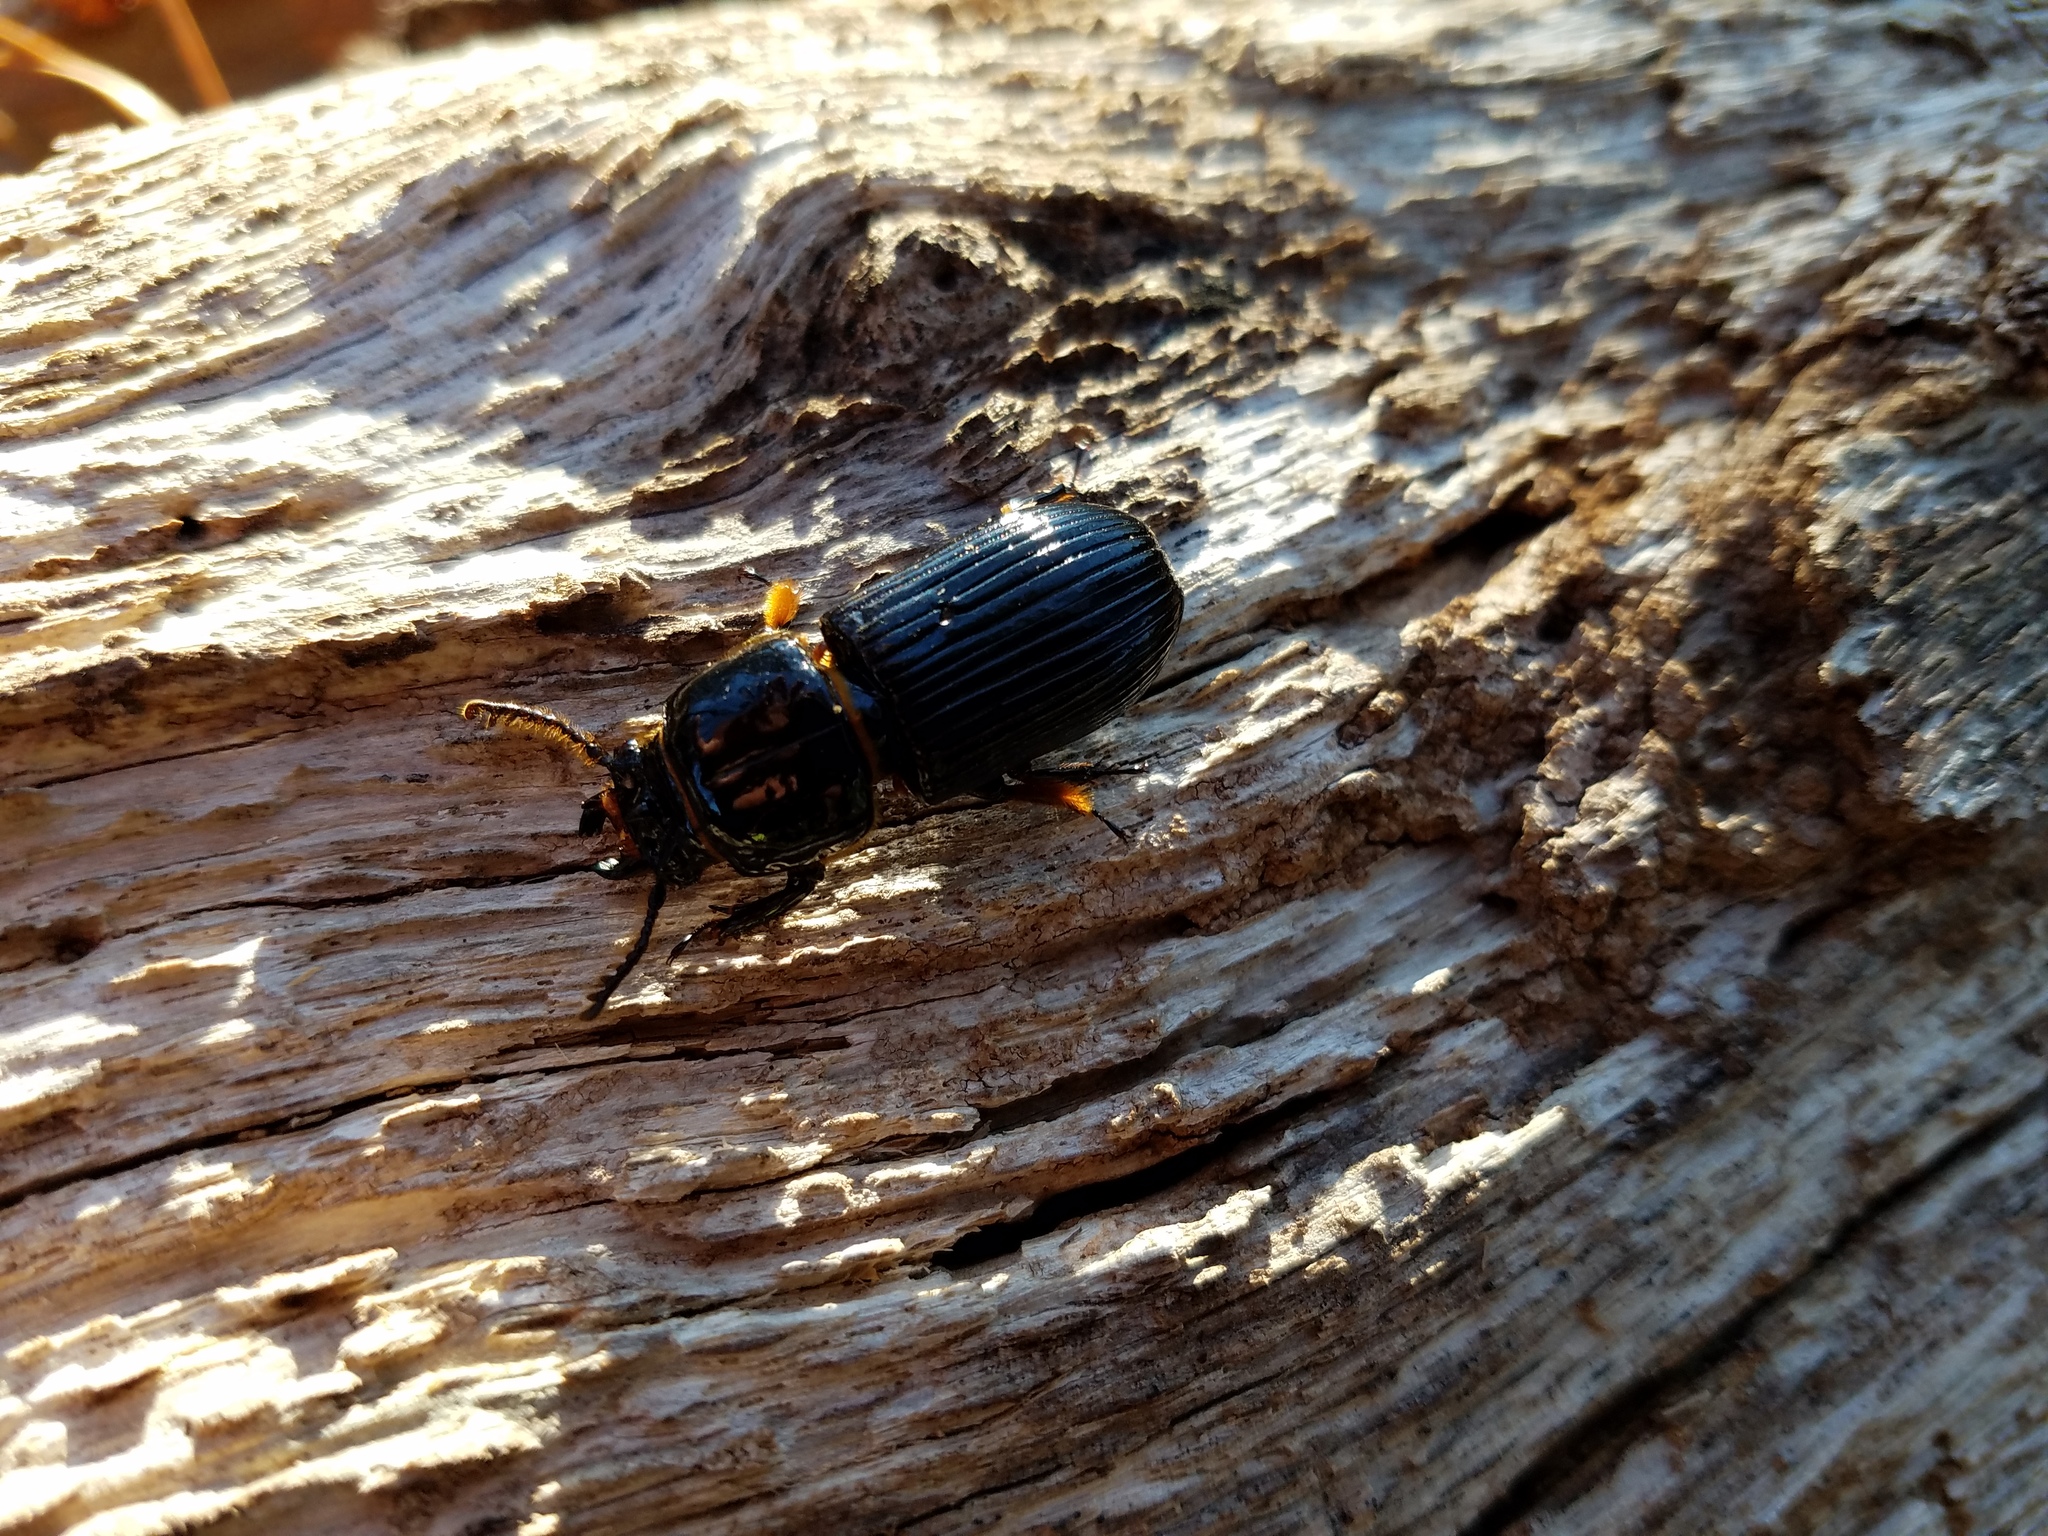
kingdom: Animalia
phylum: Arthropoda
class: Insecta
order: Coleoptera
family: Passalidae
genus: Odontotaenius
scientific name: Odontotaenius disjunctus
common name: Patent leather beetle
